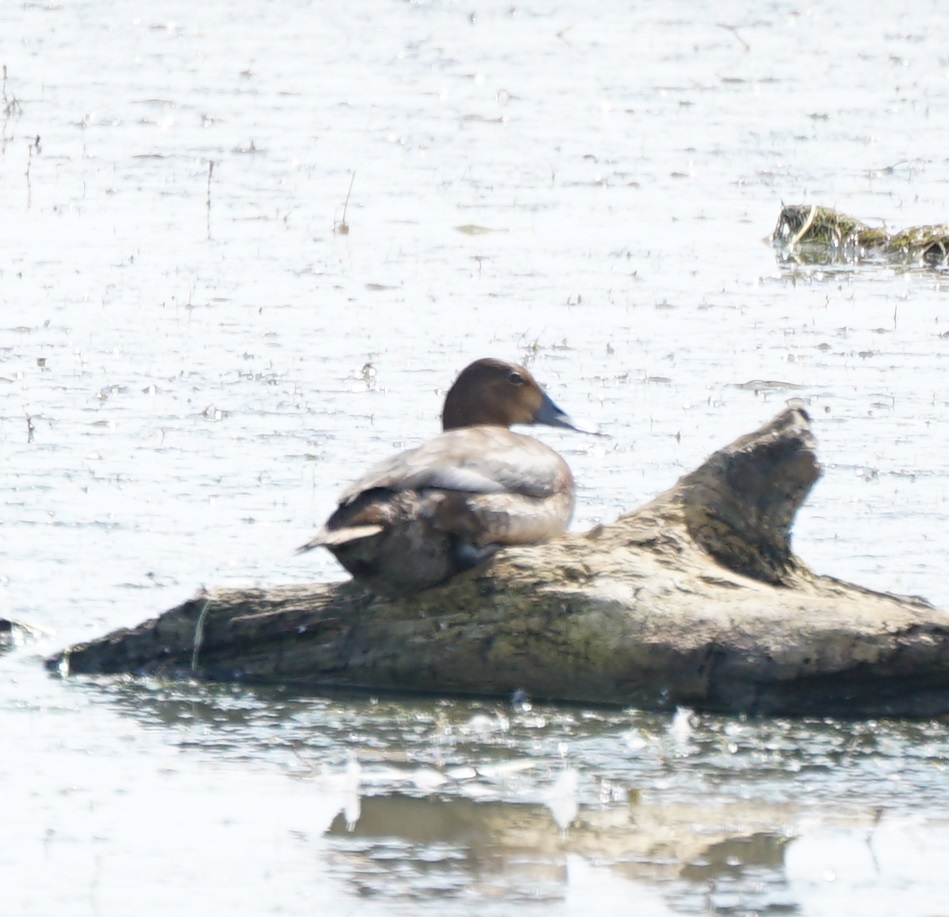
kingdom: Animalia
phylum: Chordata
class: Aves
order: Anseriformes
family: Anatidae
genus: Aythya
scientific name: Aythya ferina
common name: Common pochard
